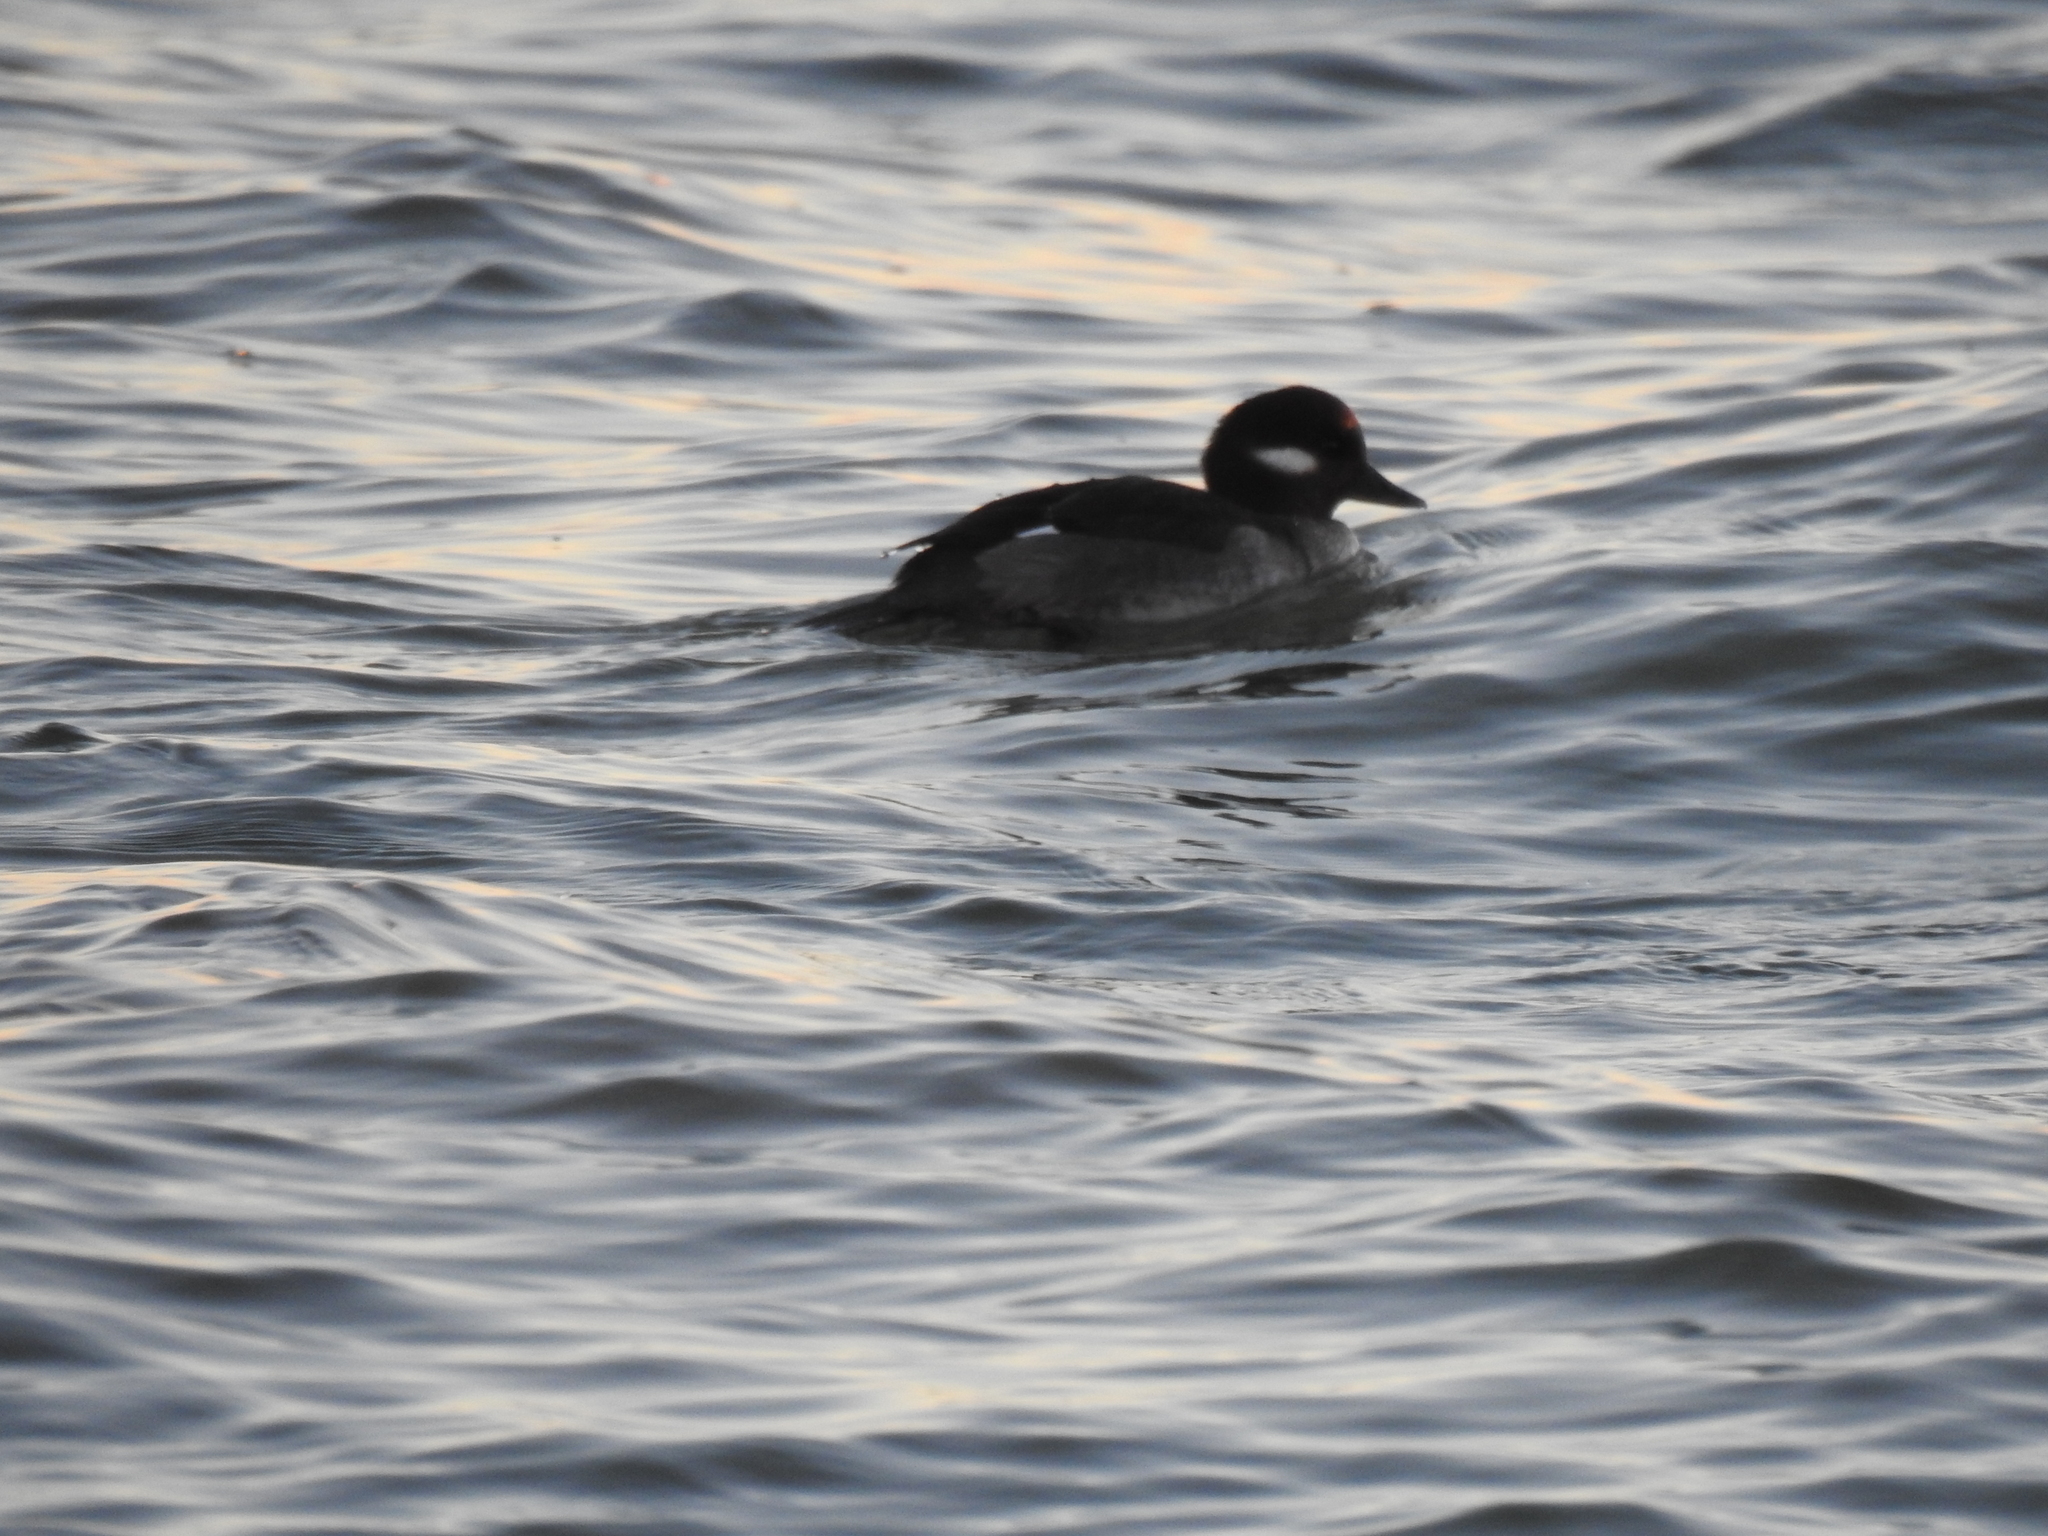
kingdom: Animalia
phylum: Chordata
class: Aves
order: Anseriformes
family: Anatidae
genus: Bucephala
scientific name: Bucephala albeola
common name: Bufflehead
